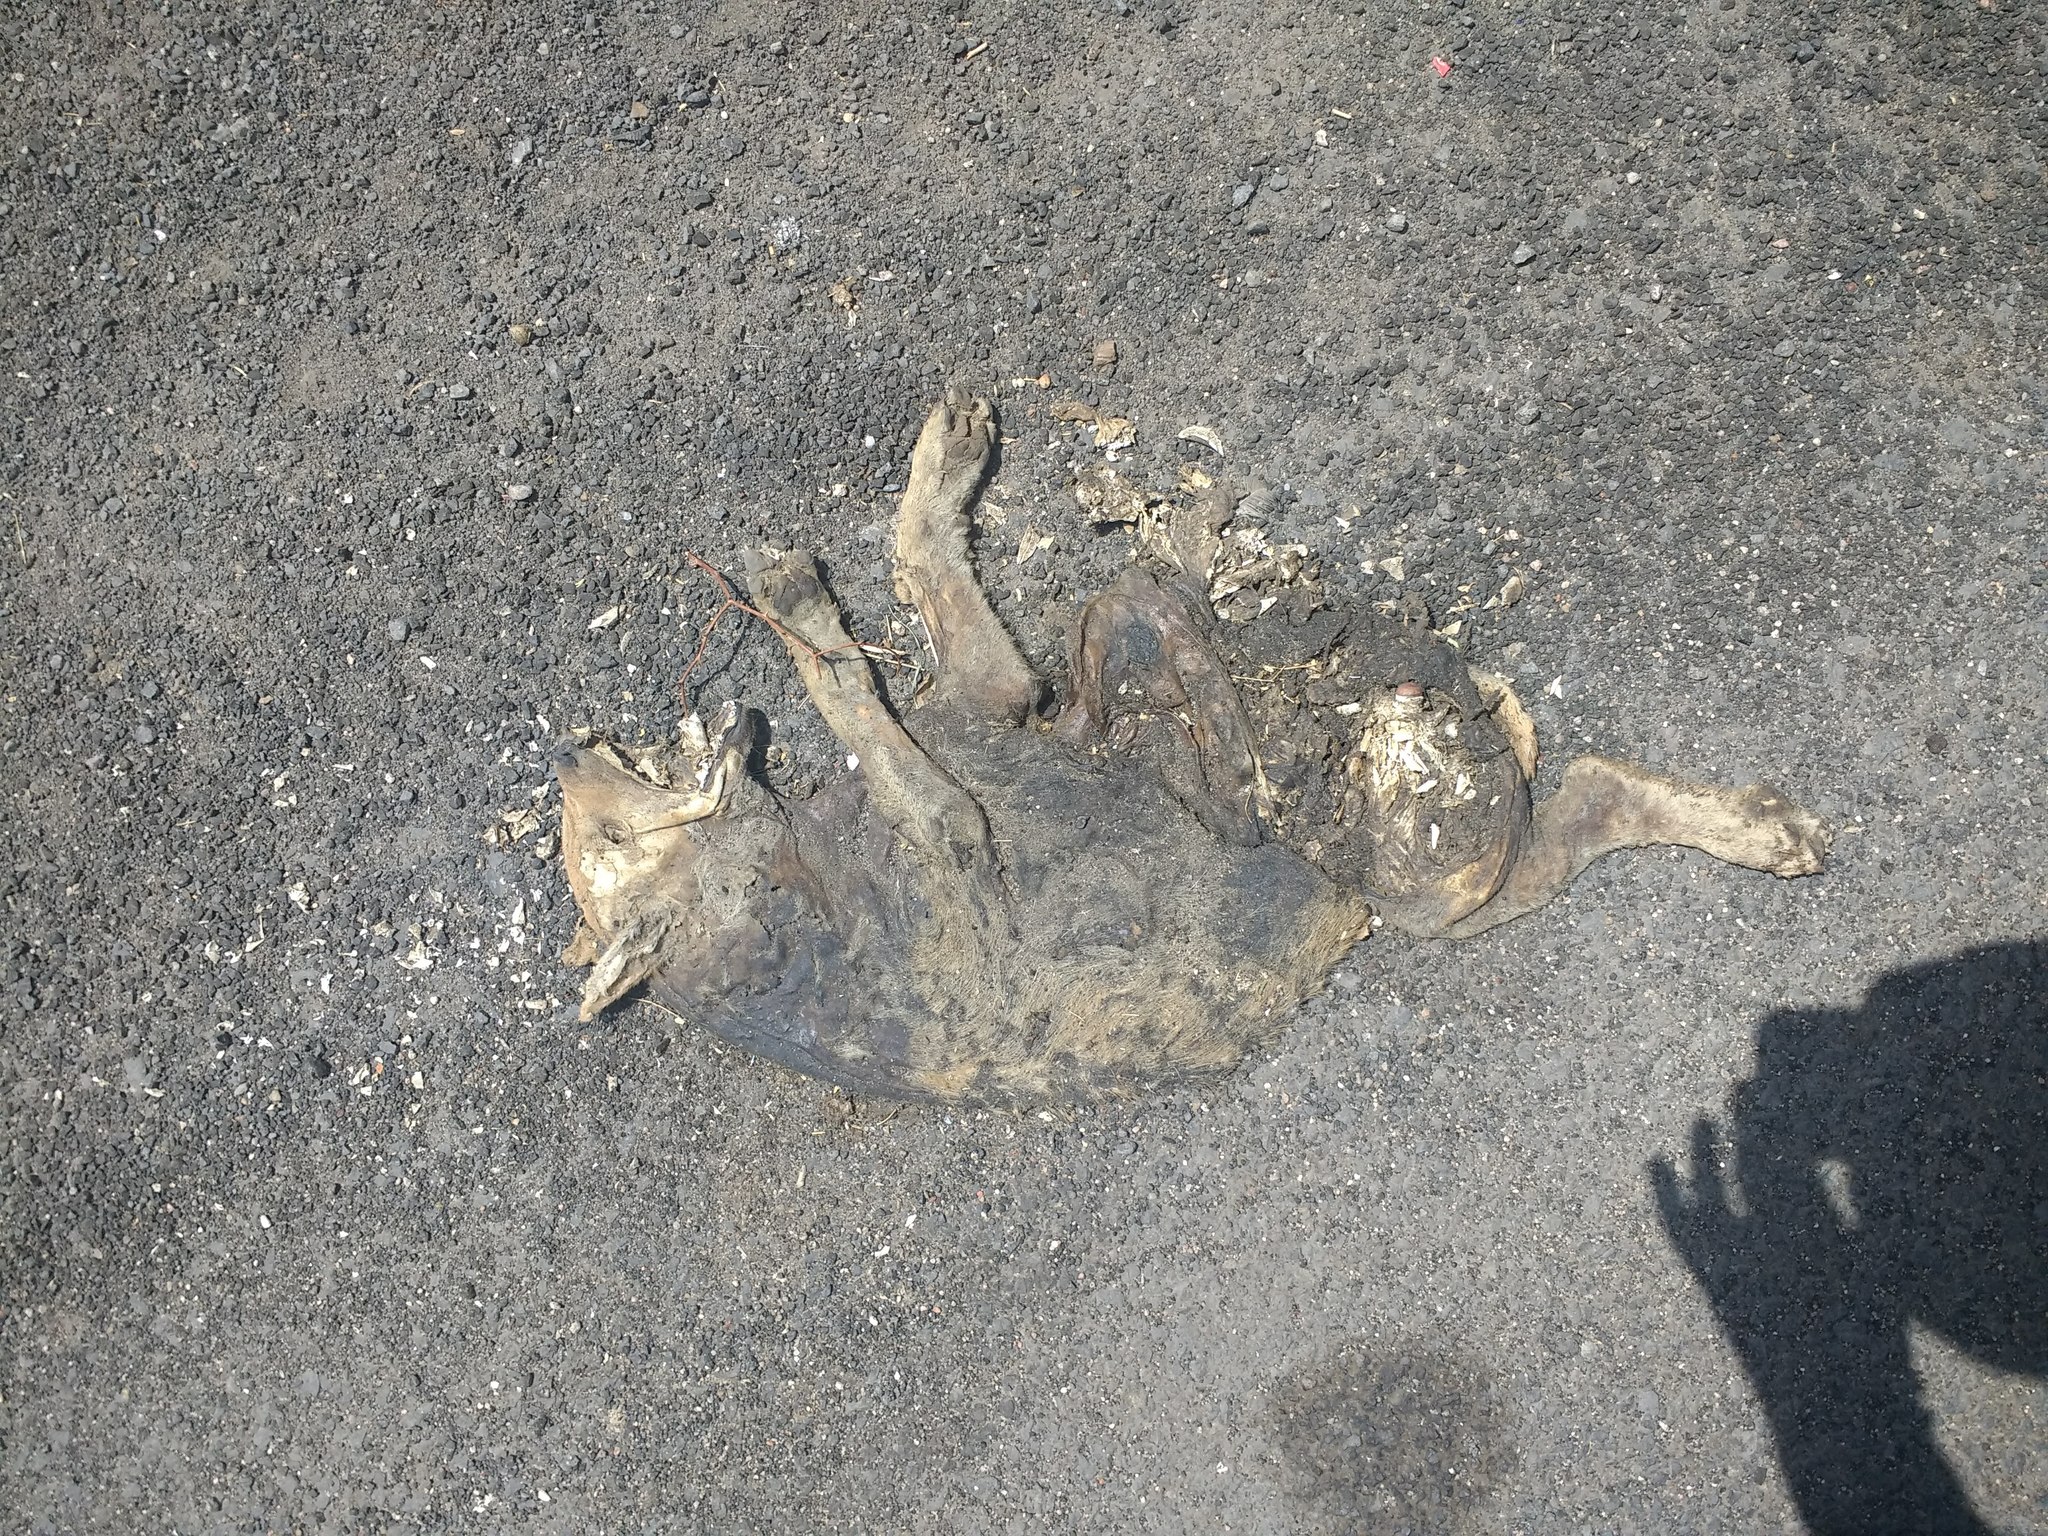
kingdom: Animalia
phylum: Chordata
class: Mammalia
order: Carnivora
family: Canidae
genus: Canis
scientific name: Canis aureus
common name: Golden jackal
